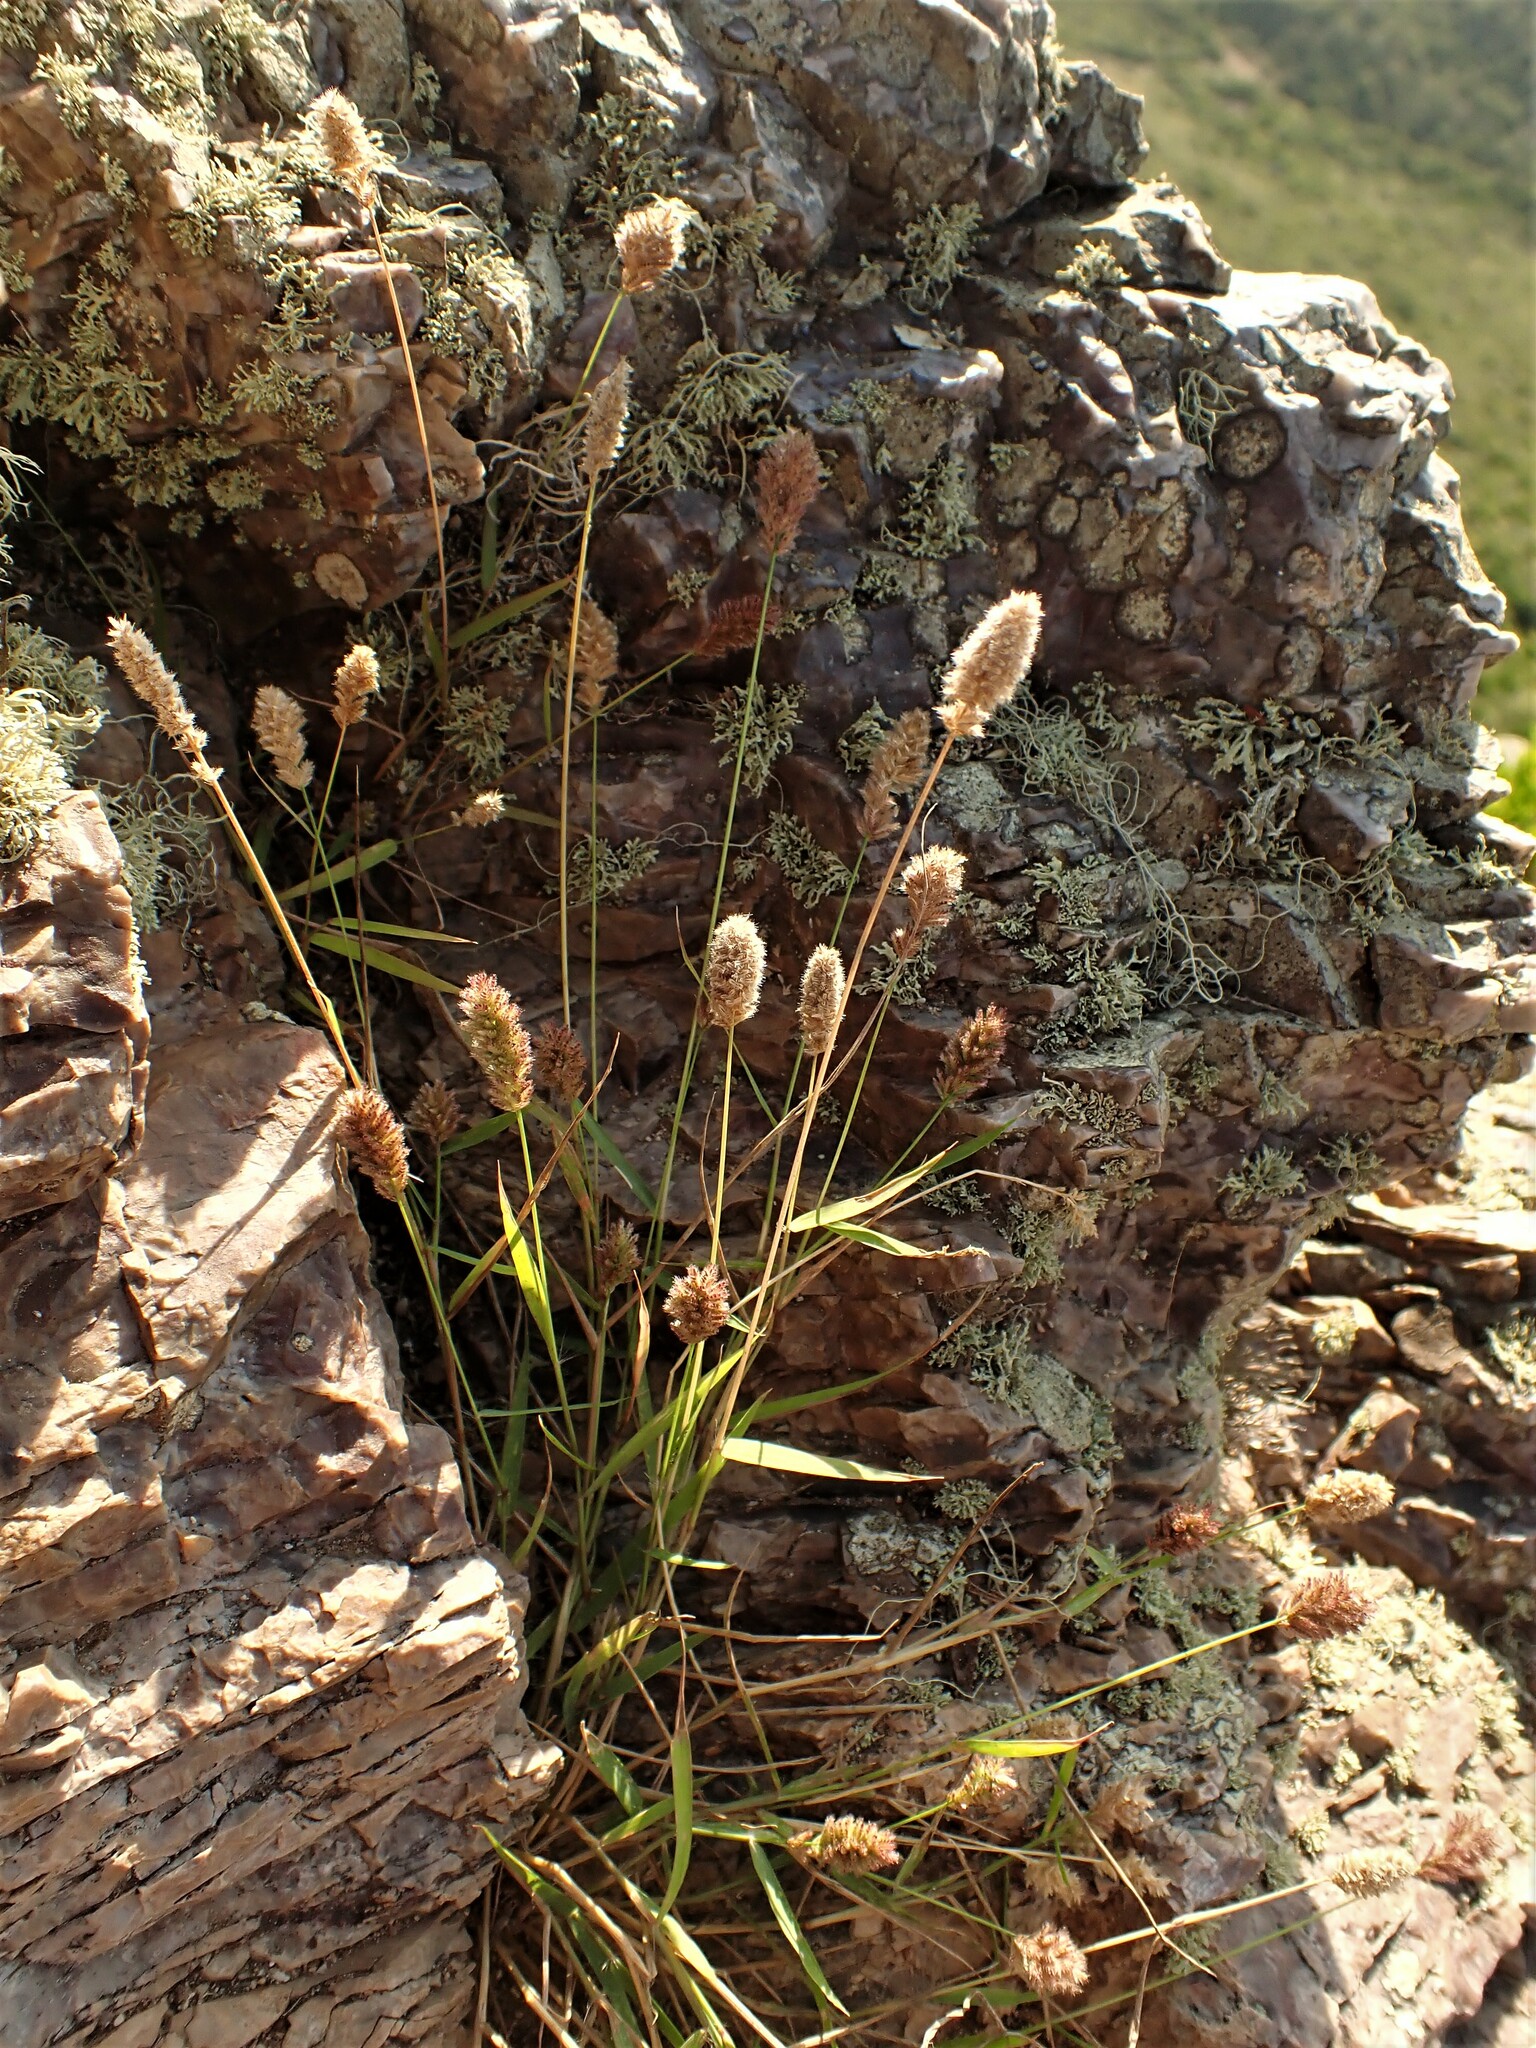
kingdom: Plantae
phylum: Tracheophyta
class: Liliopsida
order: Poales
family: Poaceae
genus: Eragrostis
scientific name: Eragrostis ciliaris
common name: Gophertail lovegrass
